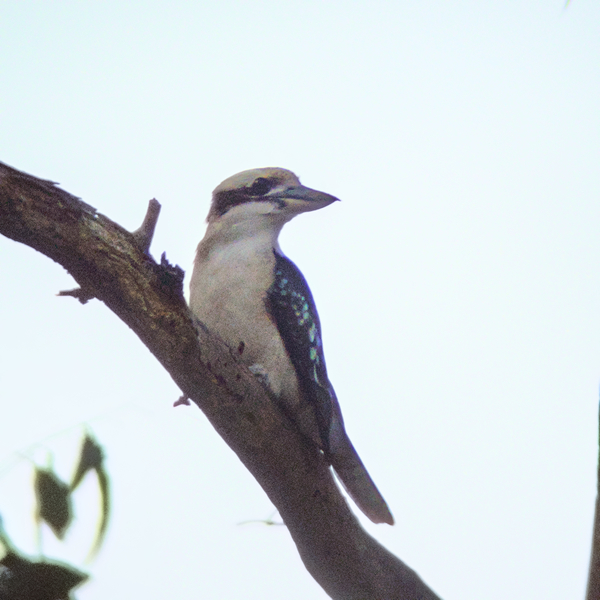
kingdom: Animalia
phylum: Chordata
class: Aves
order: Coraciiformes
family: Alcedinidae
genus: Dacelo
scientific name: Dacelo novaeguineae
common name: Laughing kookaburra
